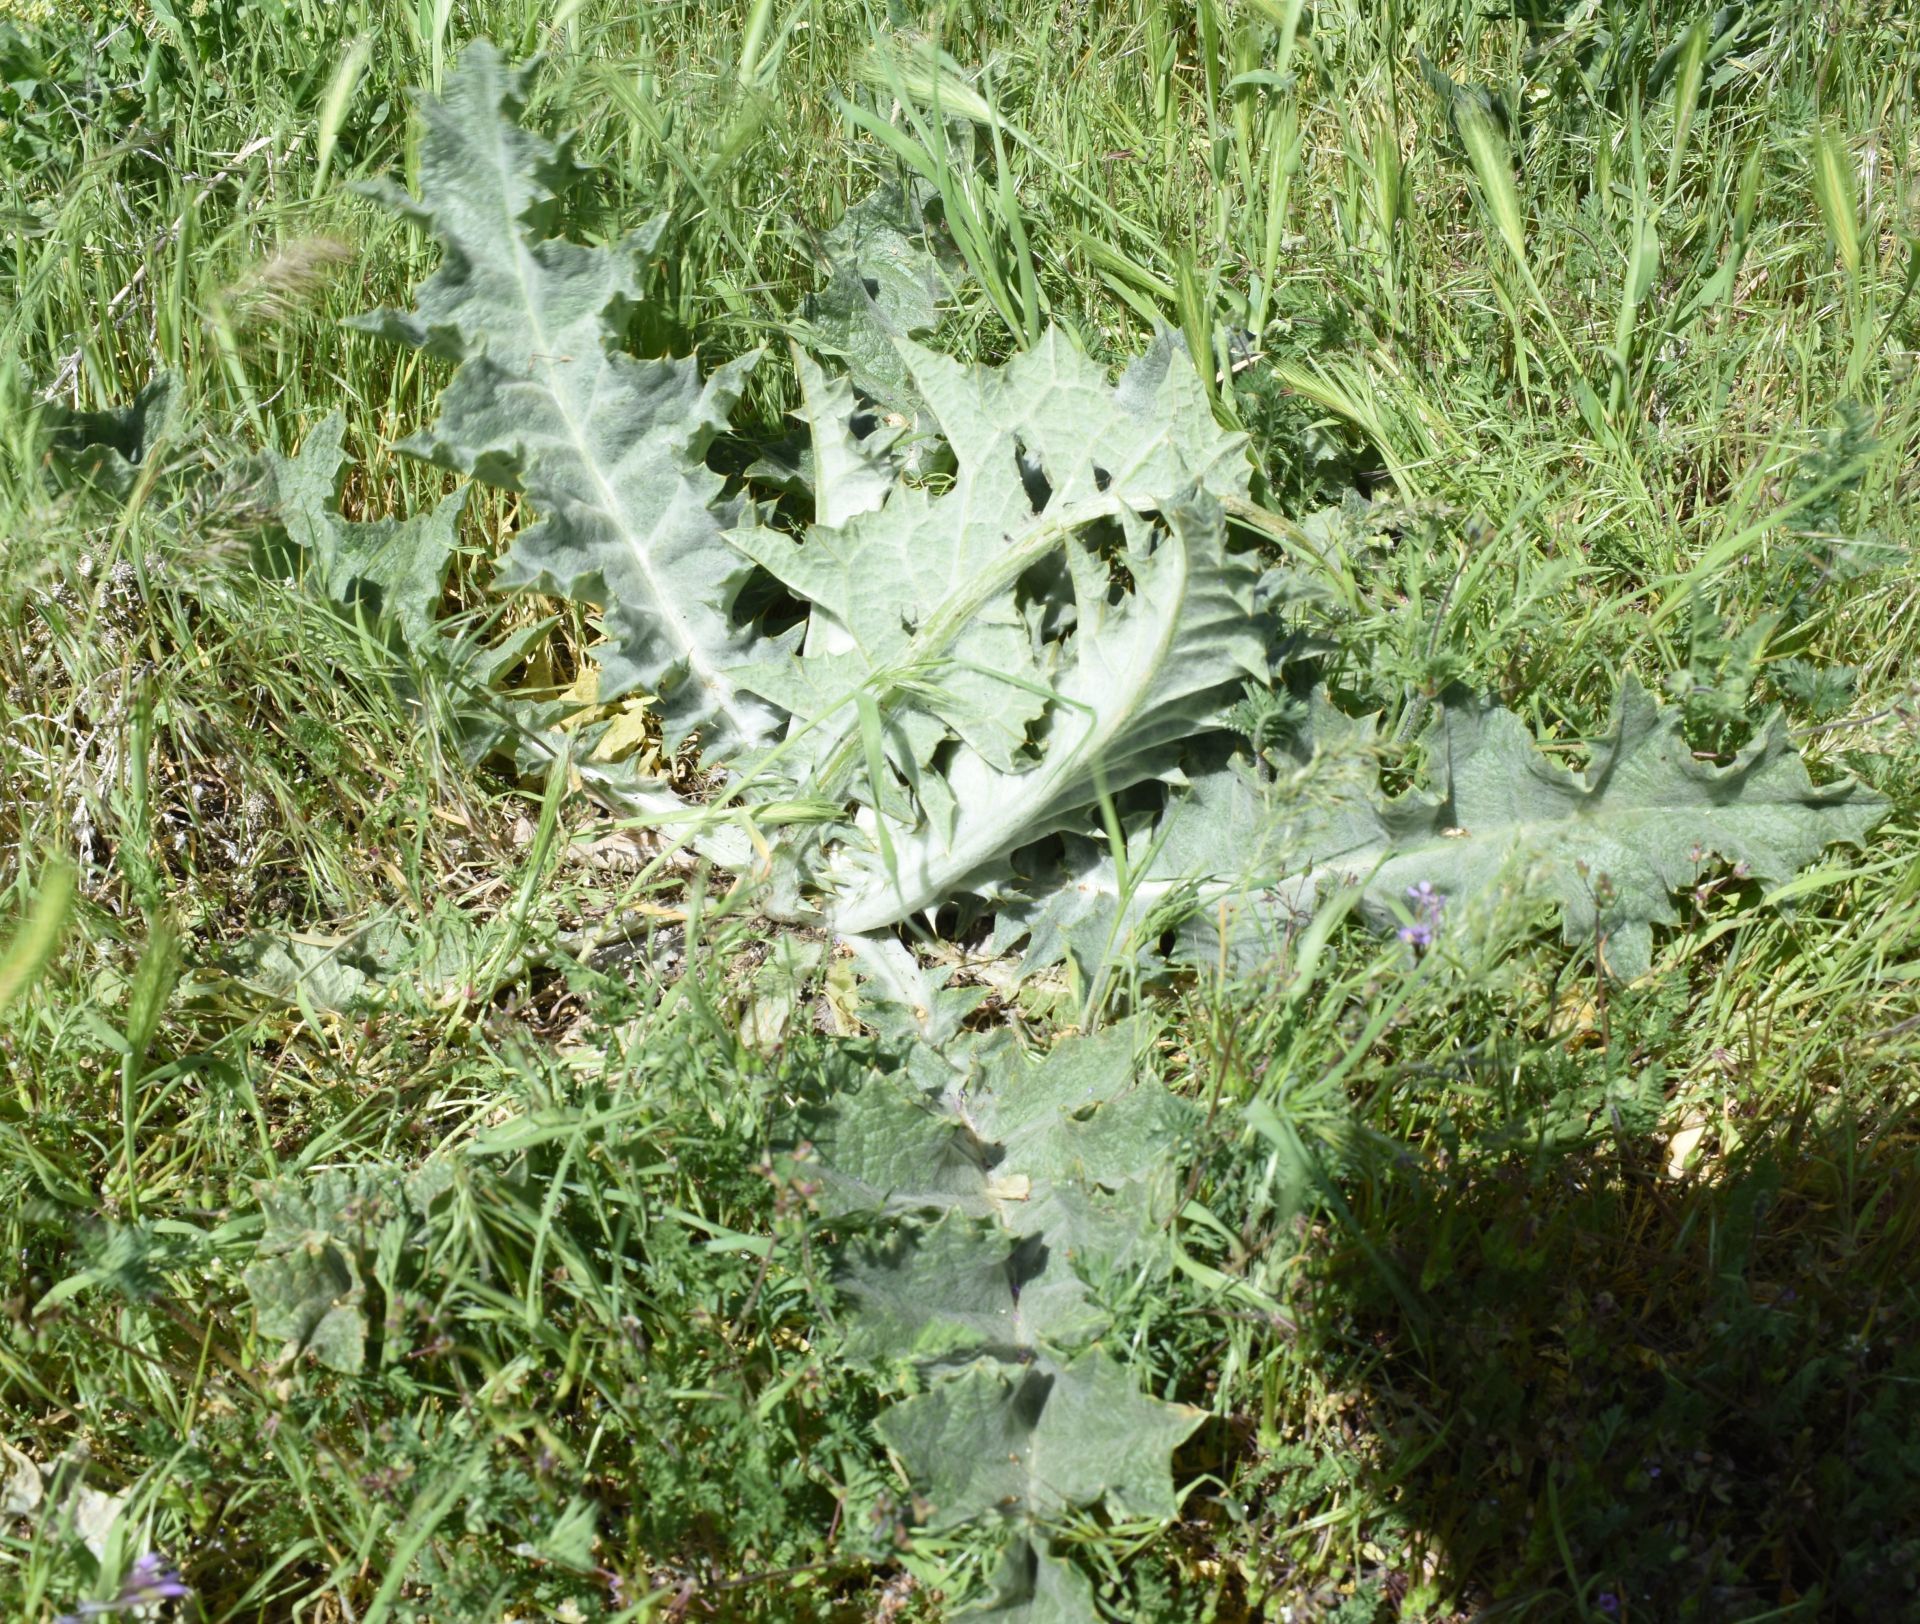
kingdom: Plantae
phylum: Tracheophyta
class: Magnoliopsida
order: Asterales
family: Asteraceae
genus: Onopordum
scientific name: Onopordum acanthium
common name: Scotch thistle
